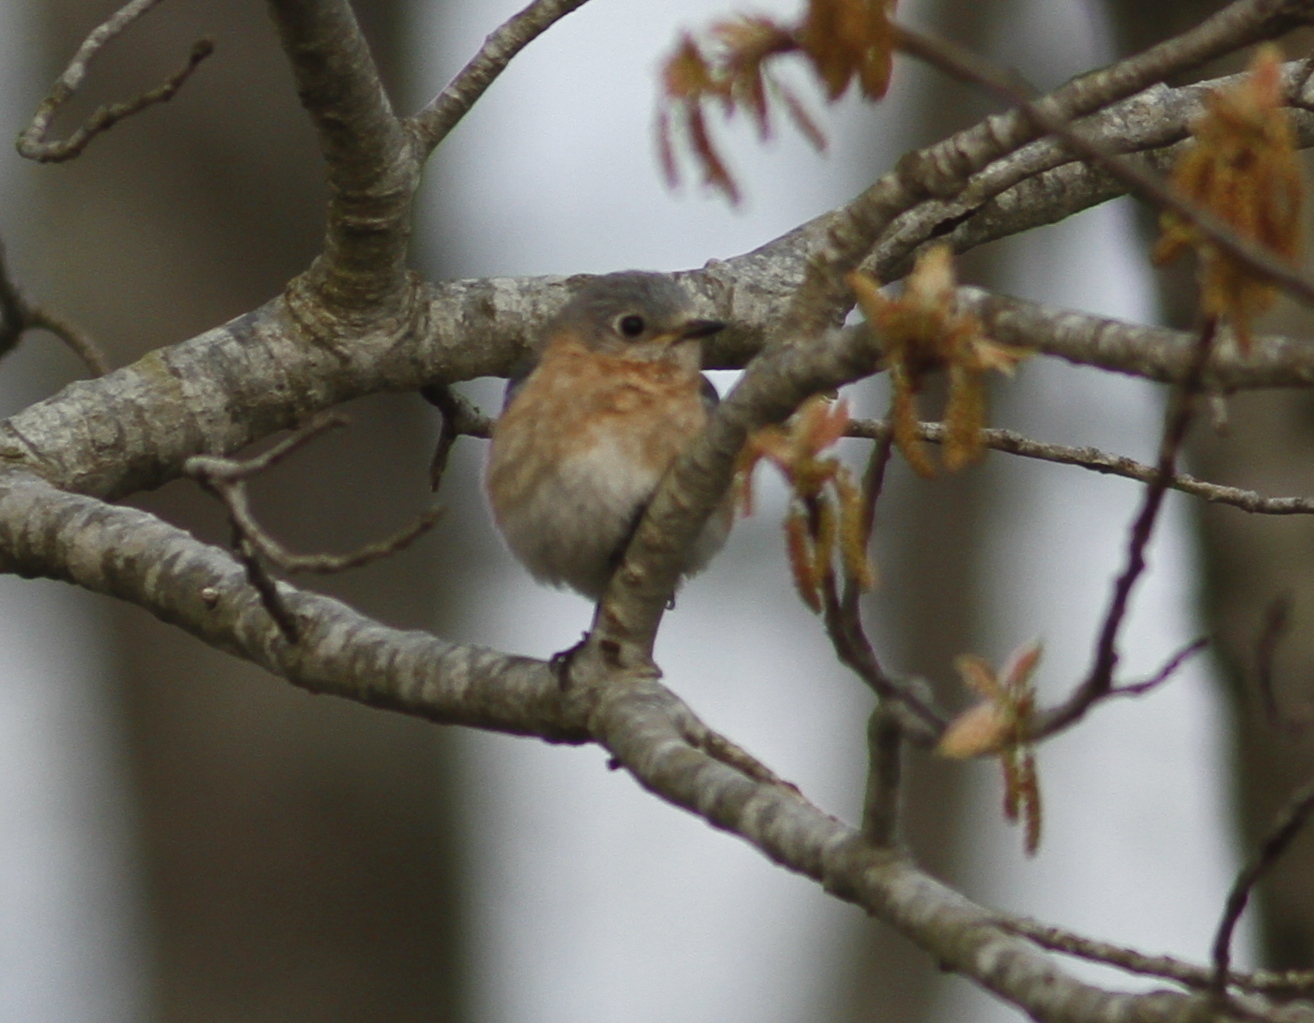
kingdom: Animalia
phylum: Chordata
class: Aves
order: Passeriformes
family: Turdidae
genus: Sialia
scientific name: Sialia sialis
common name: Eastern bluebird
